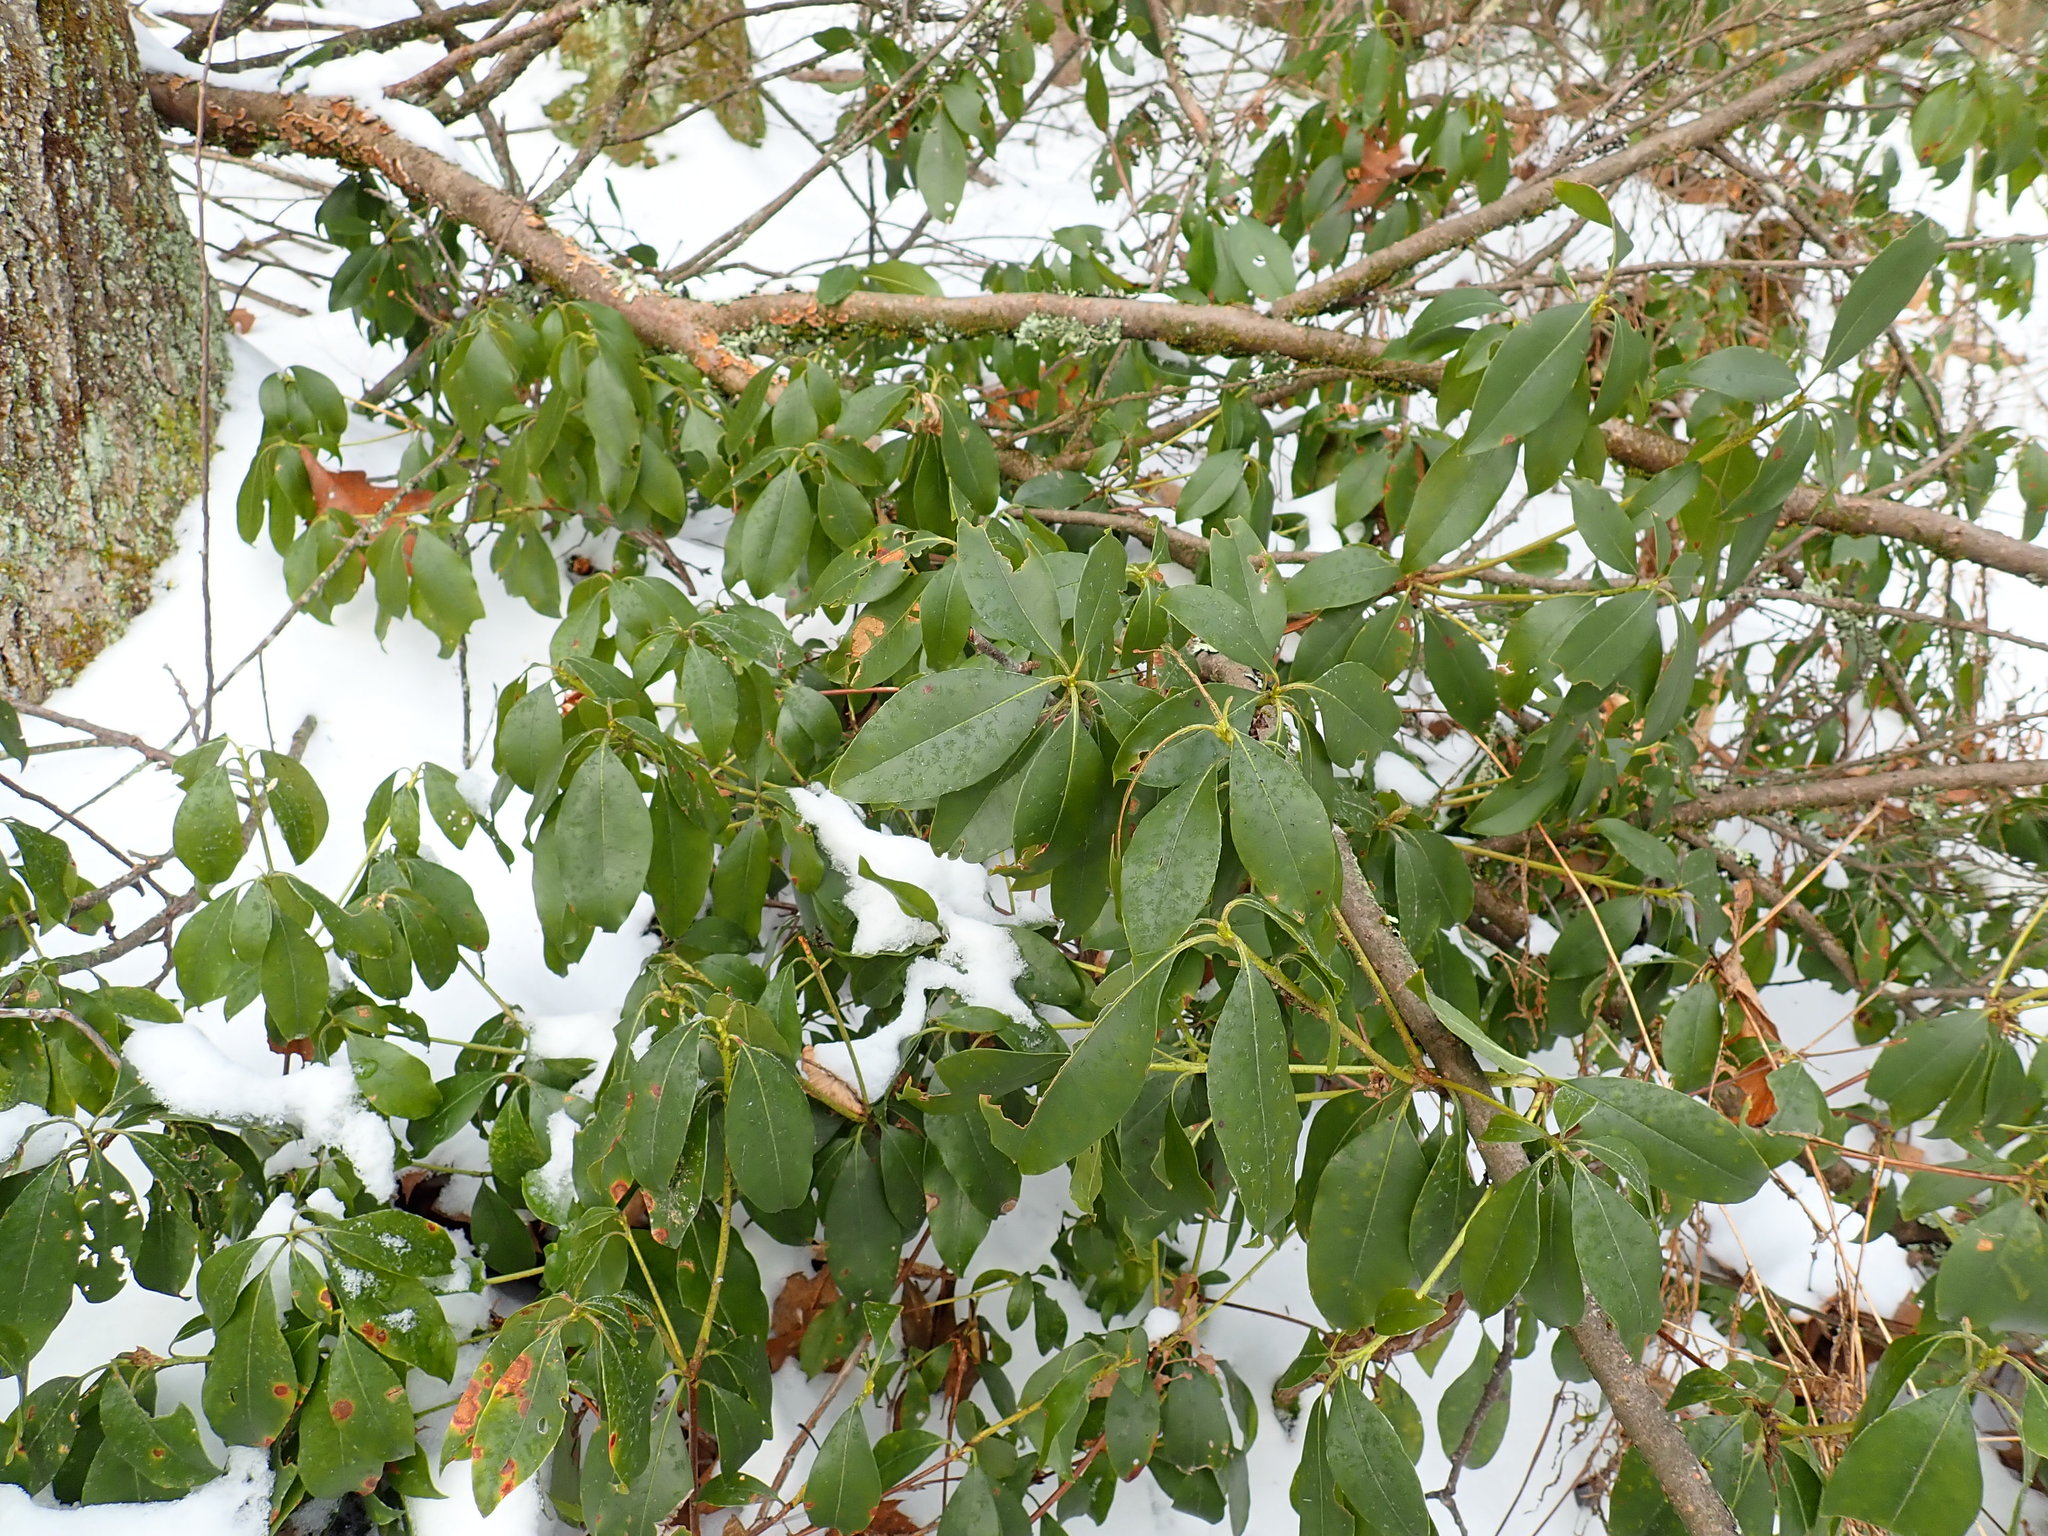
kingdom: Plantae
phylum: Tracheophyta
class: Magnoliopsida
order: Ericales
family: Ericaceae
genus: Kalmia
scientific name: Kalmia latifolia
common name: Mountain-laurel
